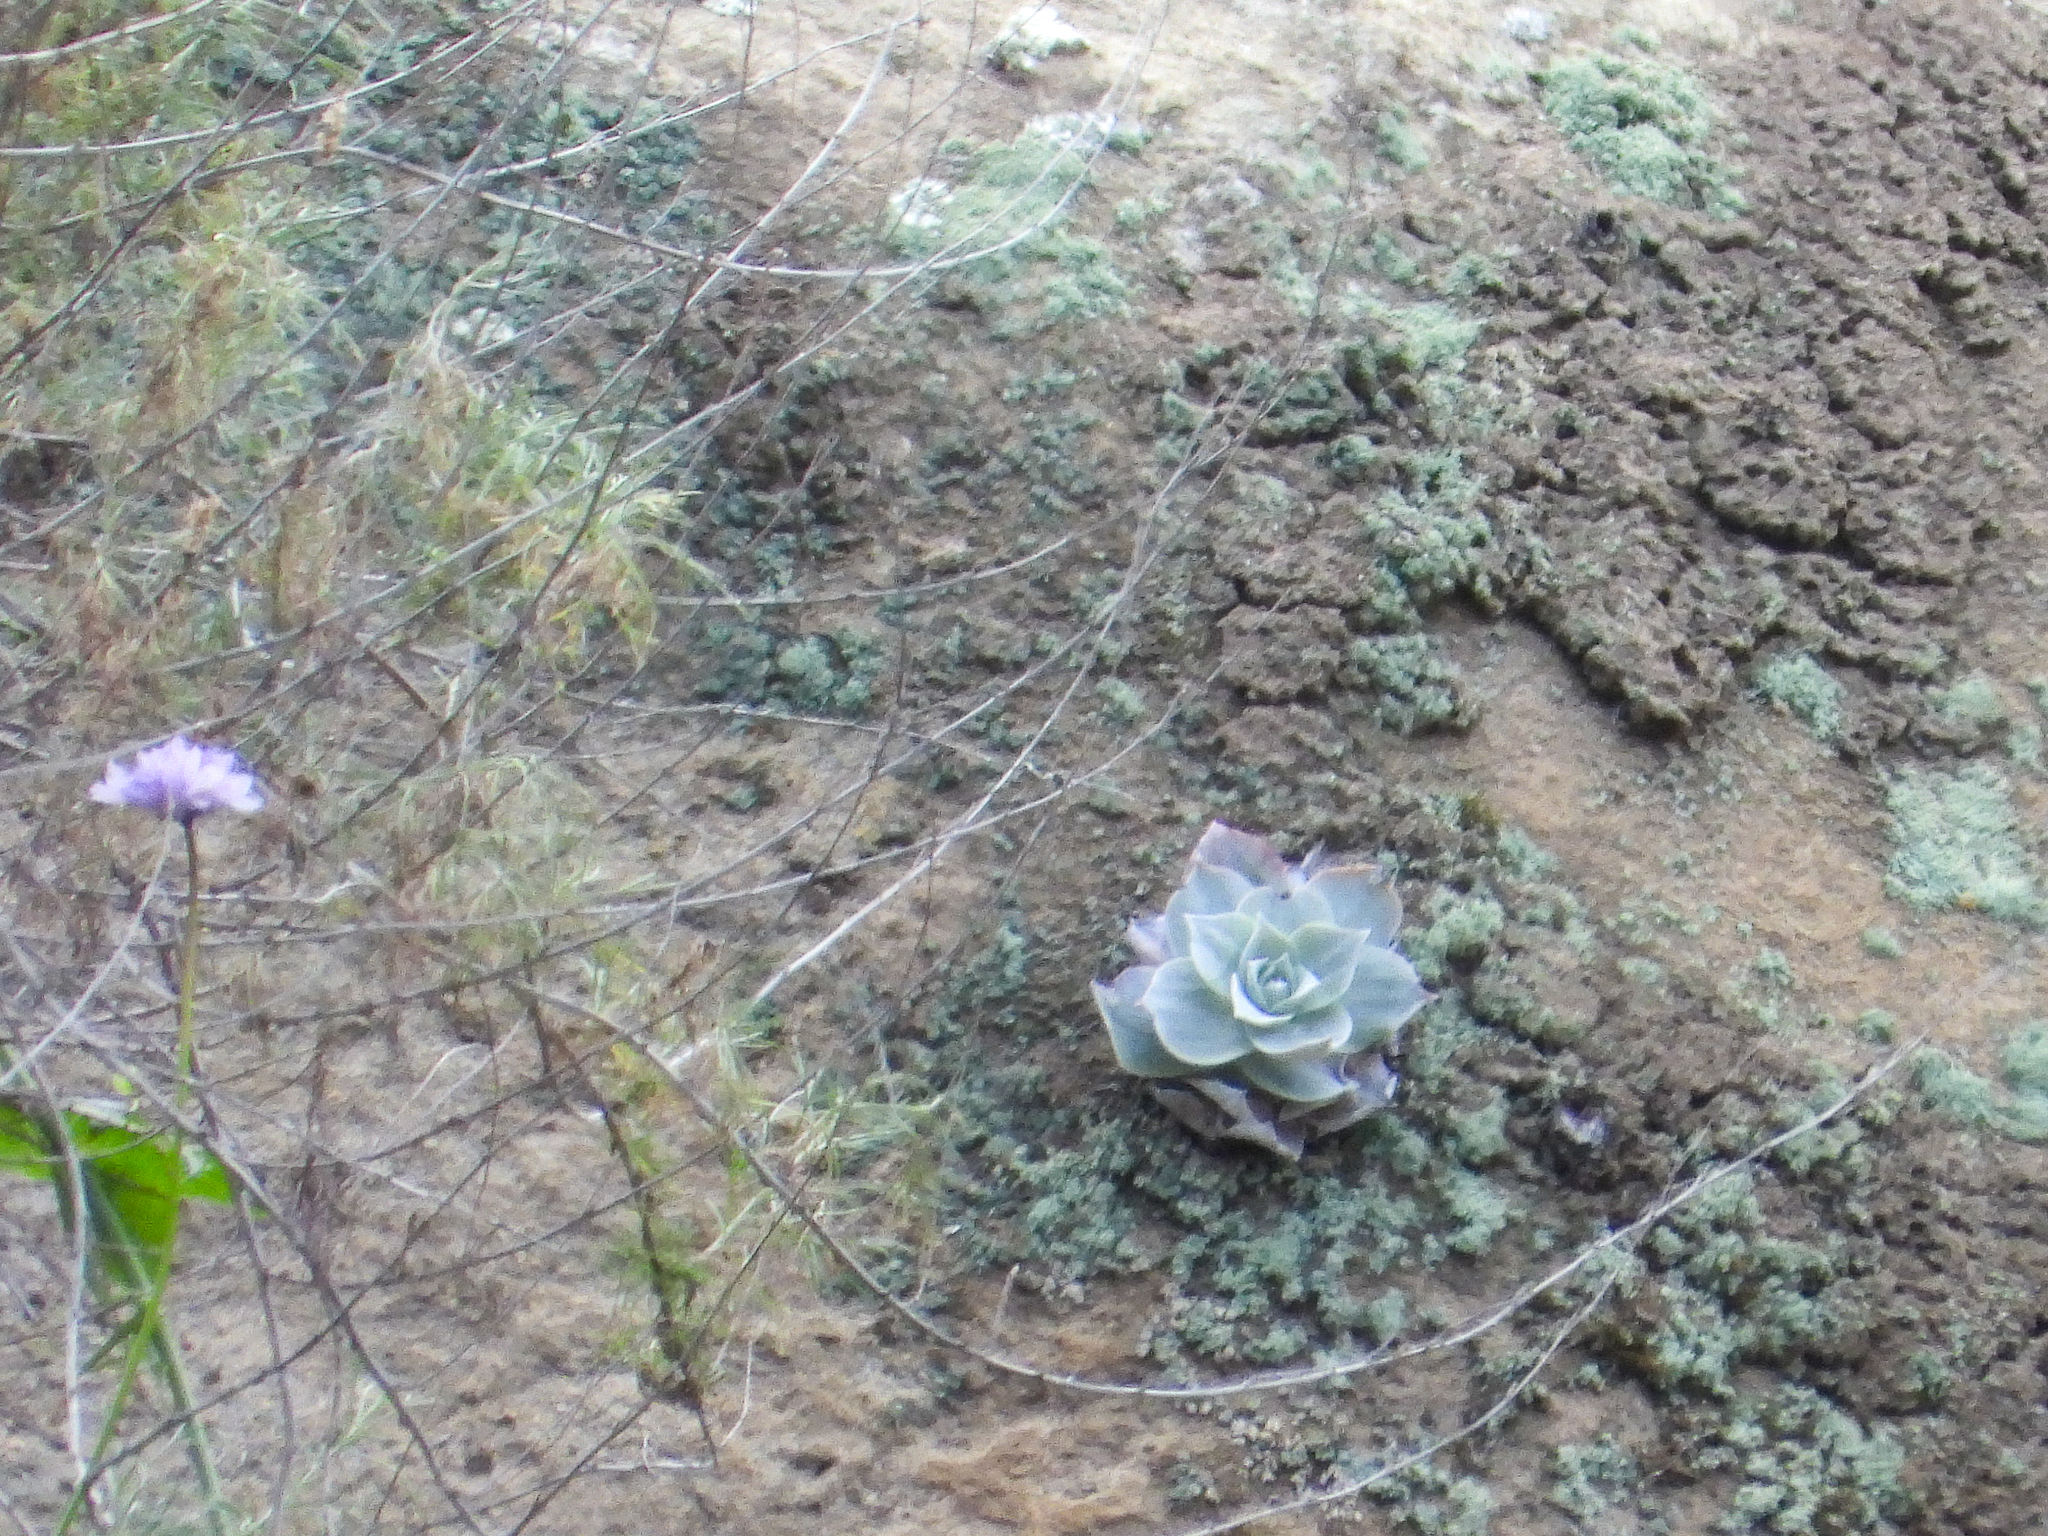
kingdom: Plantae
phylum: Tracheophyta
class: Magnoliopsida
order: Saxifragales
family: Crassulaceae
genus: Dudleya
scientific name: Dudleya pulverulenta
